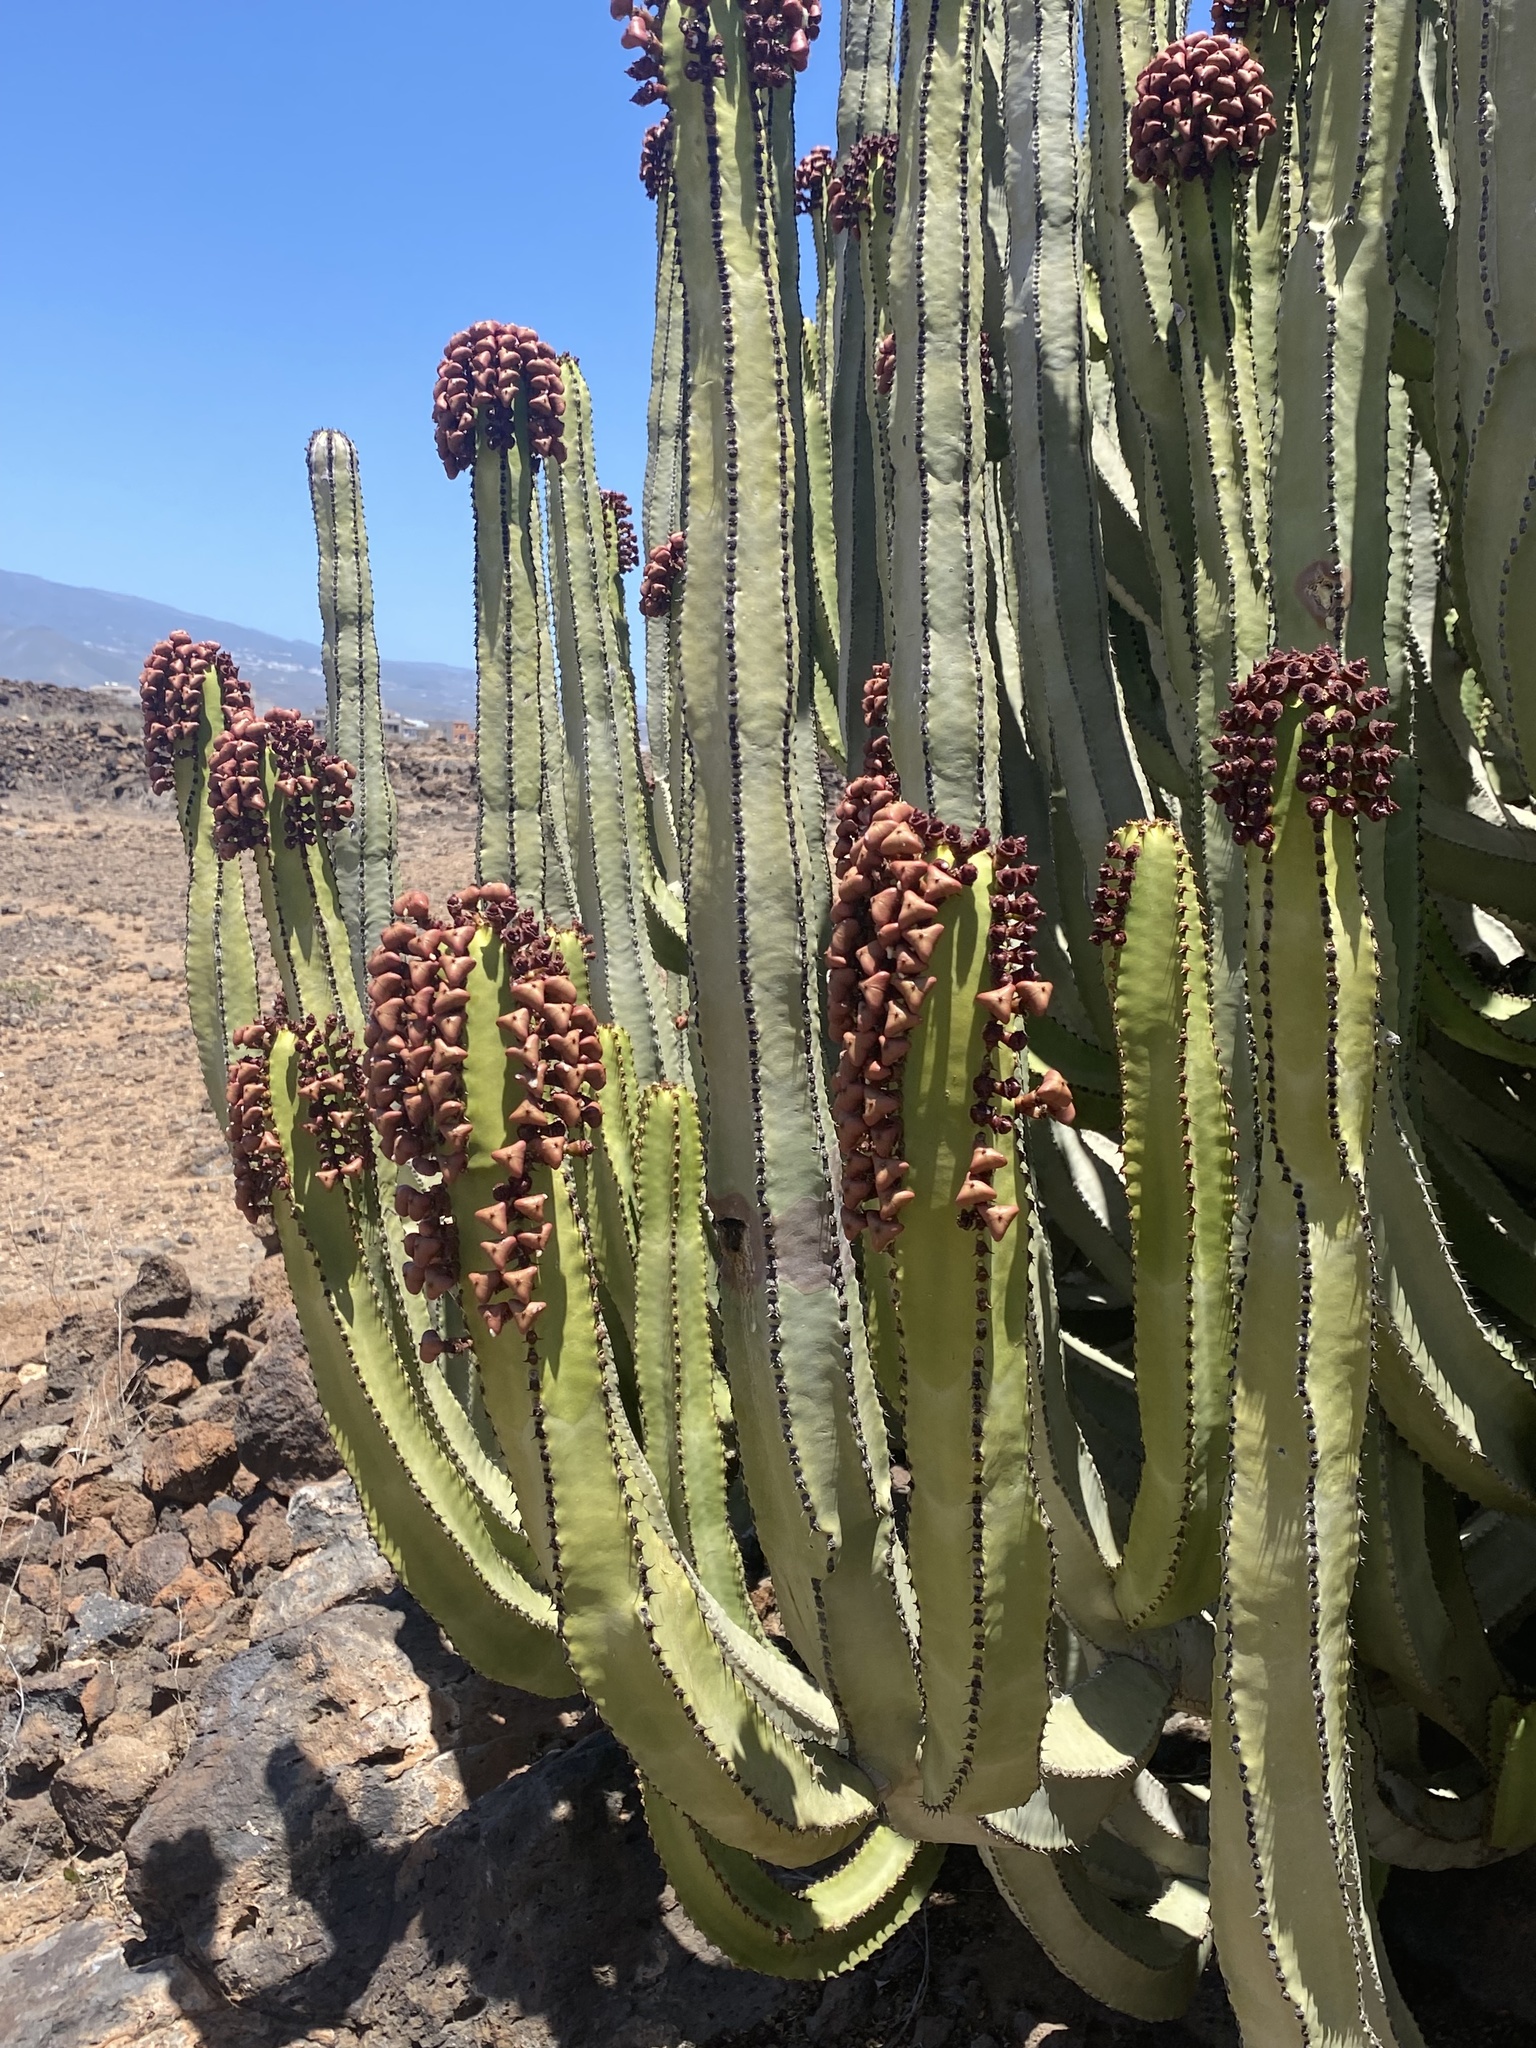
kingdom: Plantae
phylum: Tracheophyta
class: Magnoliopsida
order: Malpighiales
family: Euphorbiaceae
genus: Euphorbia
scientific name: Euphorbia canariensis
